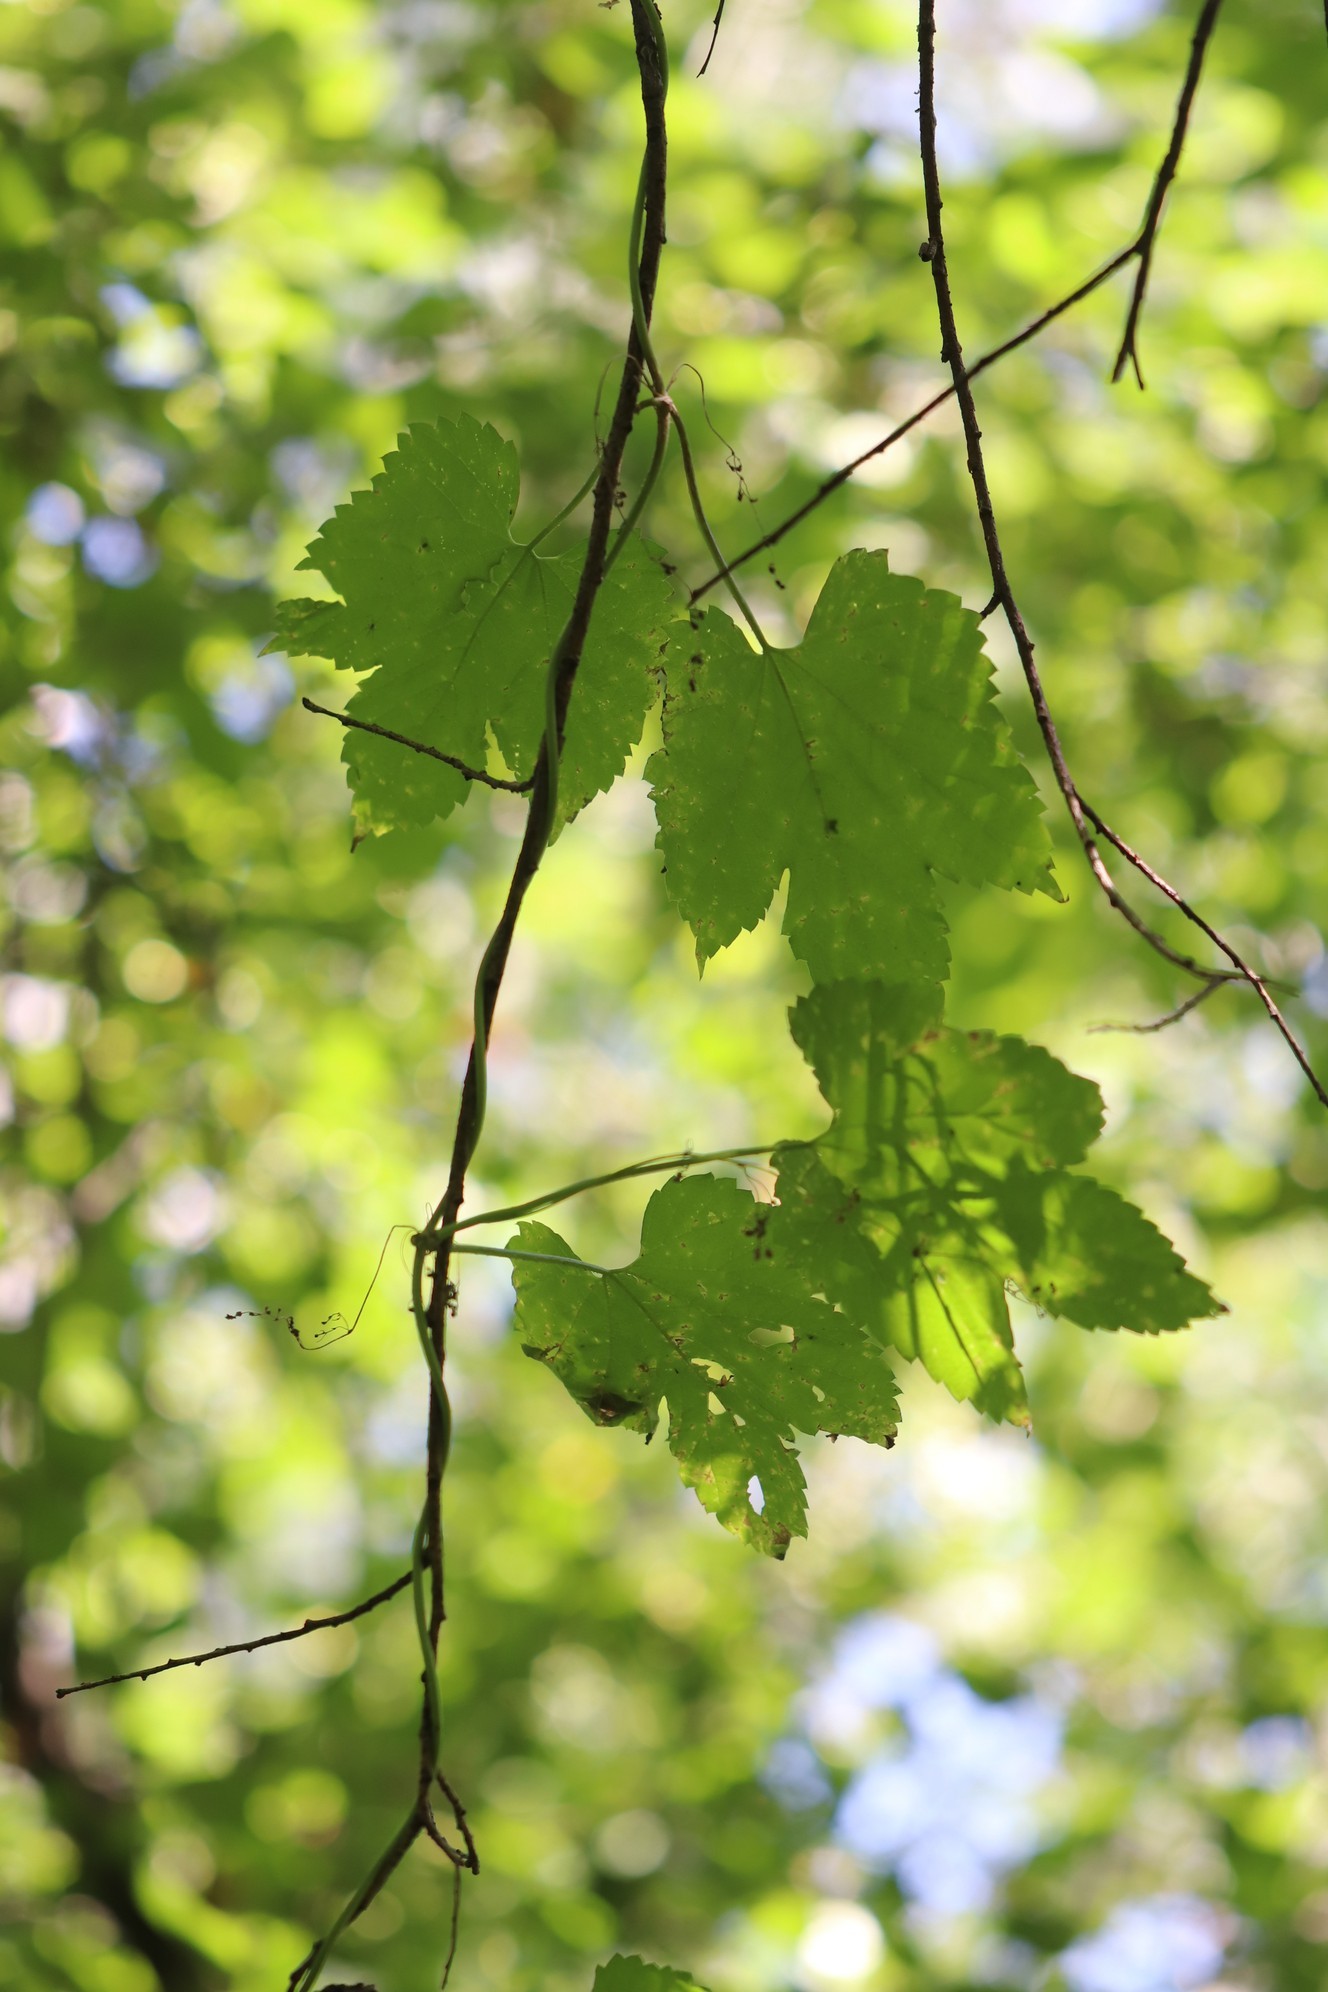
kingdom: Plantae
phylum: Tracheophyta
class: Magnoliopsida
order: Rosales
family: Cannabaceae
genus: Humulus
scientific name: Humulus lupulus
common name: Hop
